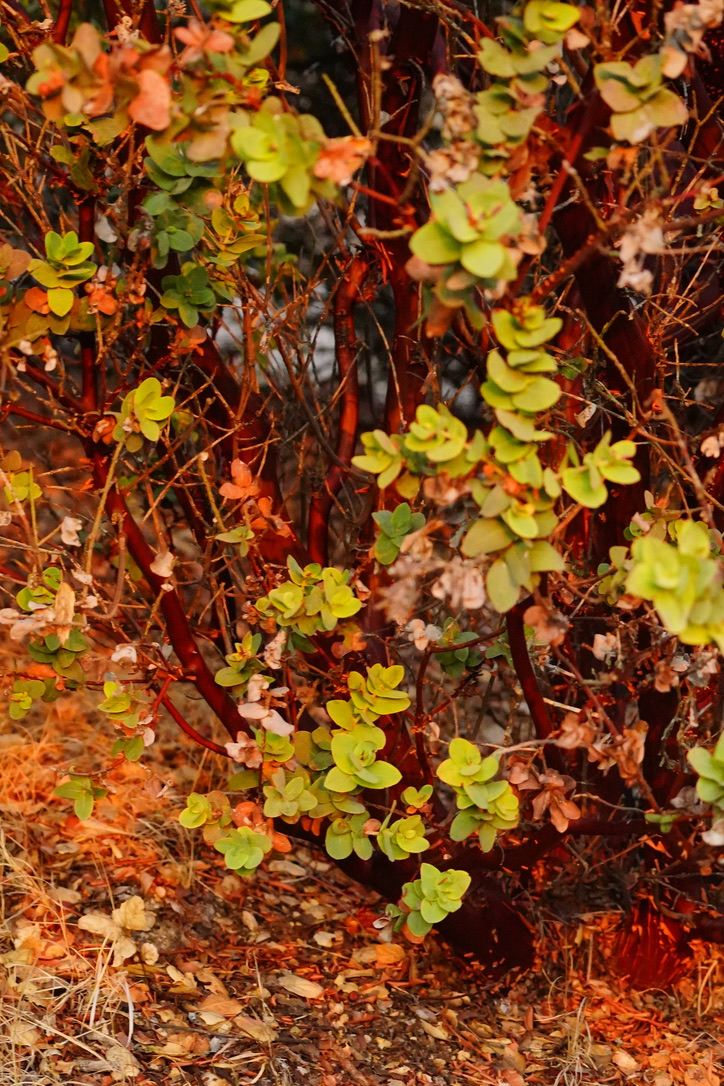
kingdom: Plantae
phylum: Tracheophyta
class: Magnoliopsida
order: Ericales
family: Ericaceae
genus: Arctostaphylos
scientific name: Arctostaphylos pallida
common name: Pallid manzanita
